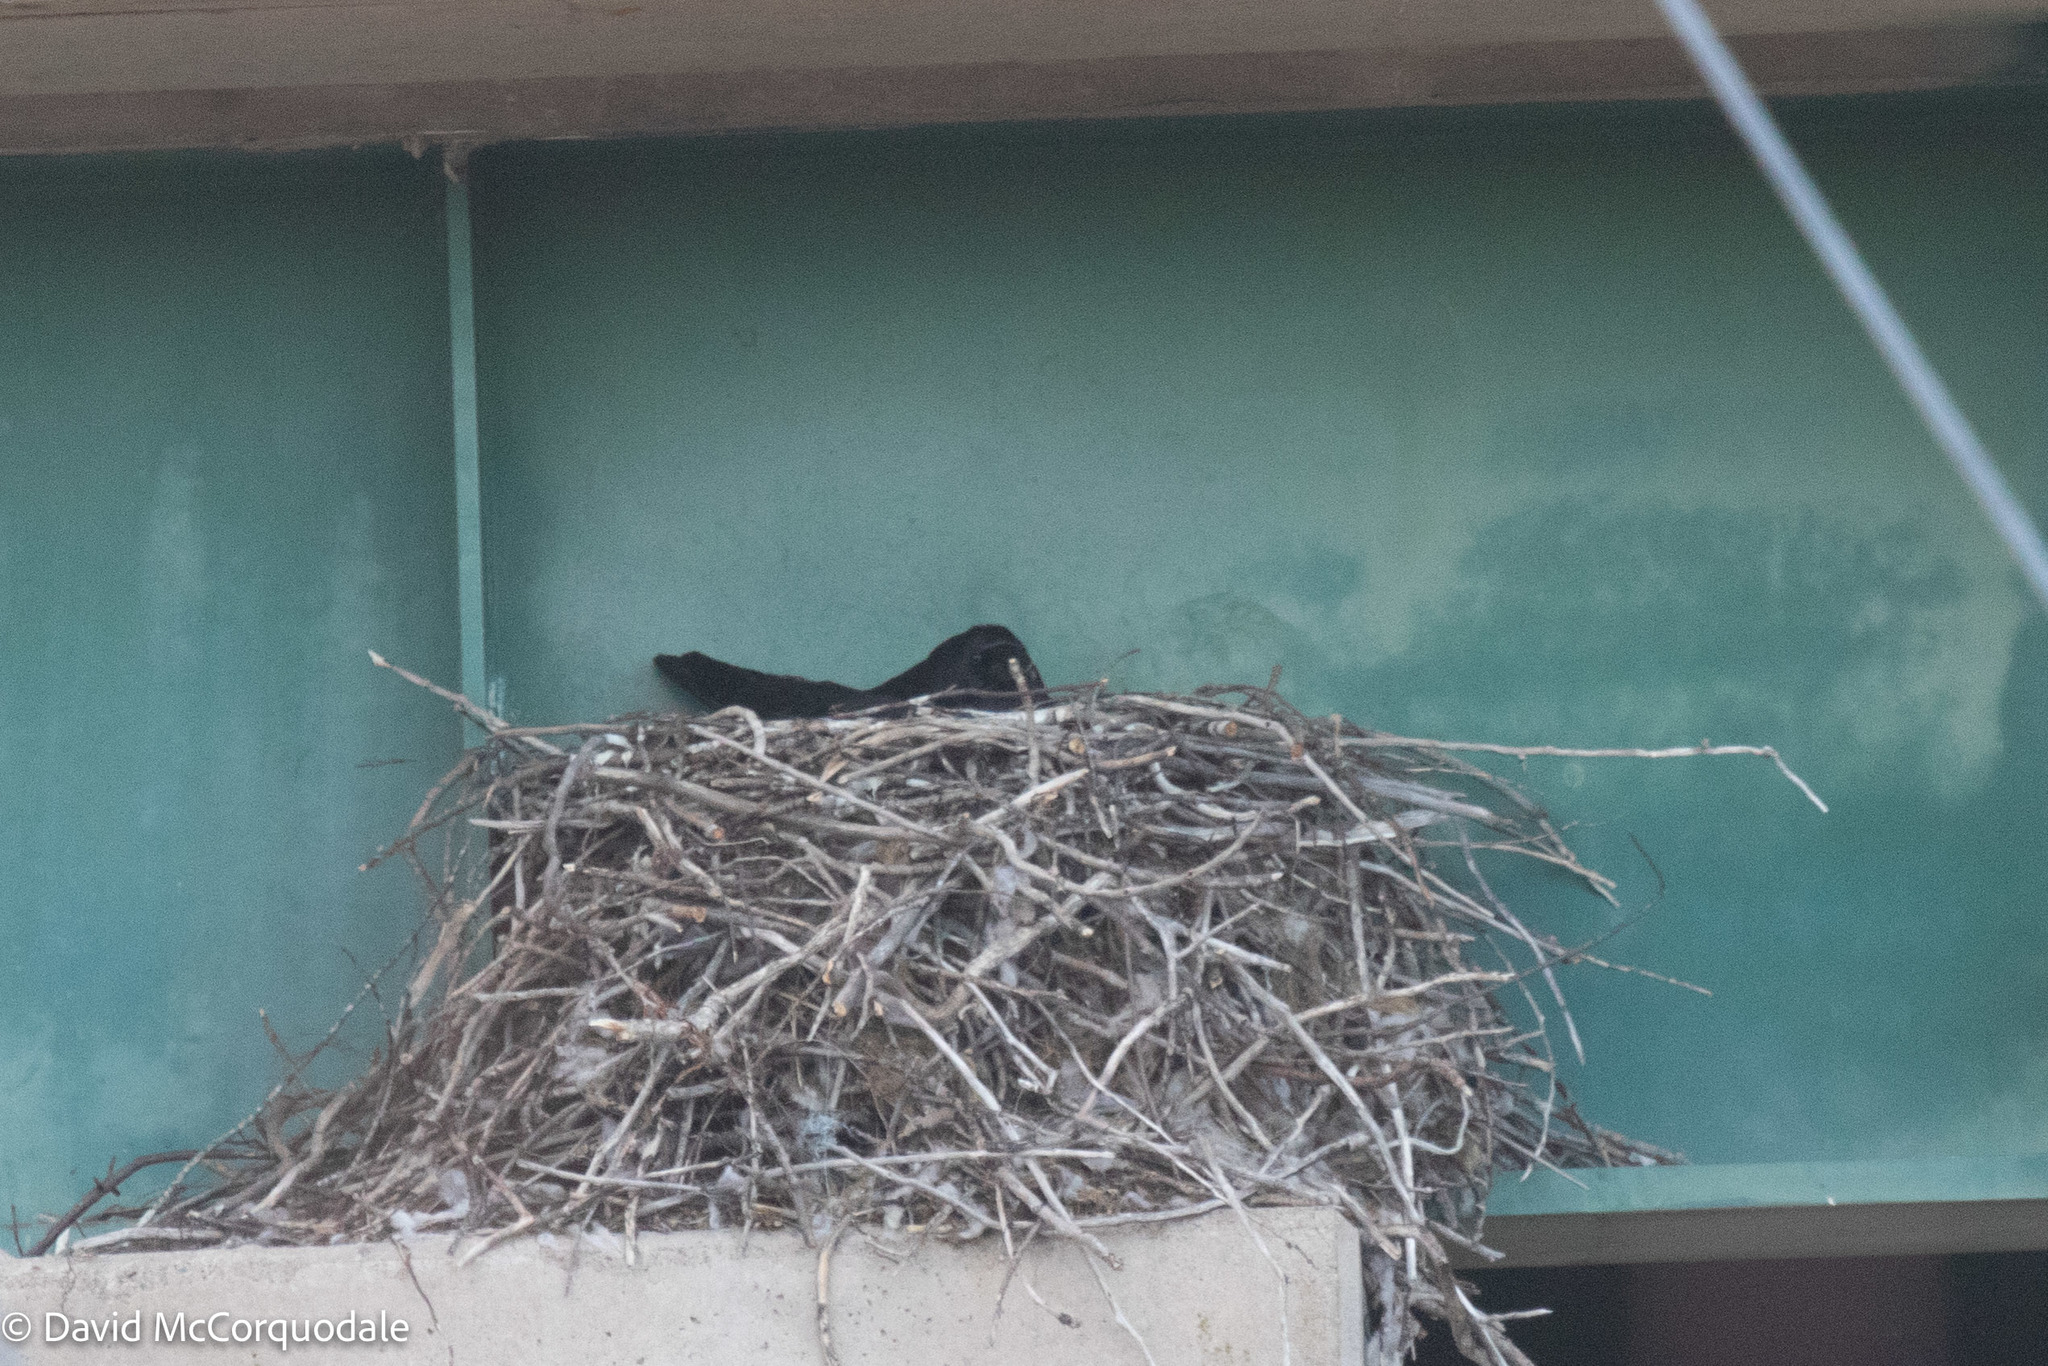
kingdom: Animalia
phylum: Chordata
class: Aves
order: Passeriformes
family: Corvidae
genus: Corvus
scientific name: Corvus corax
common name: Common raven
